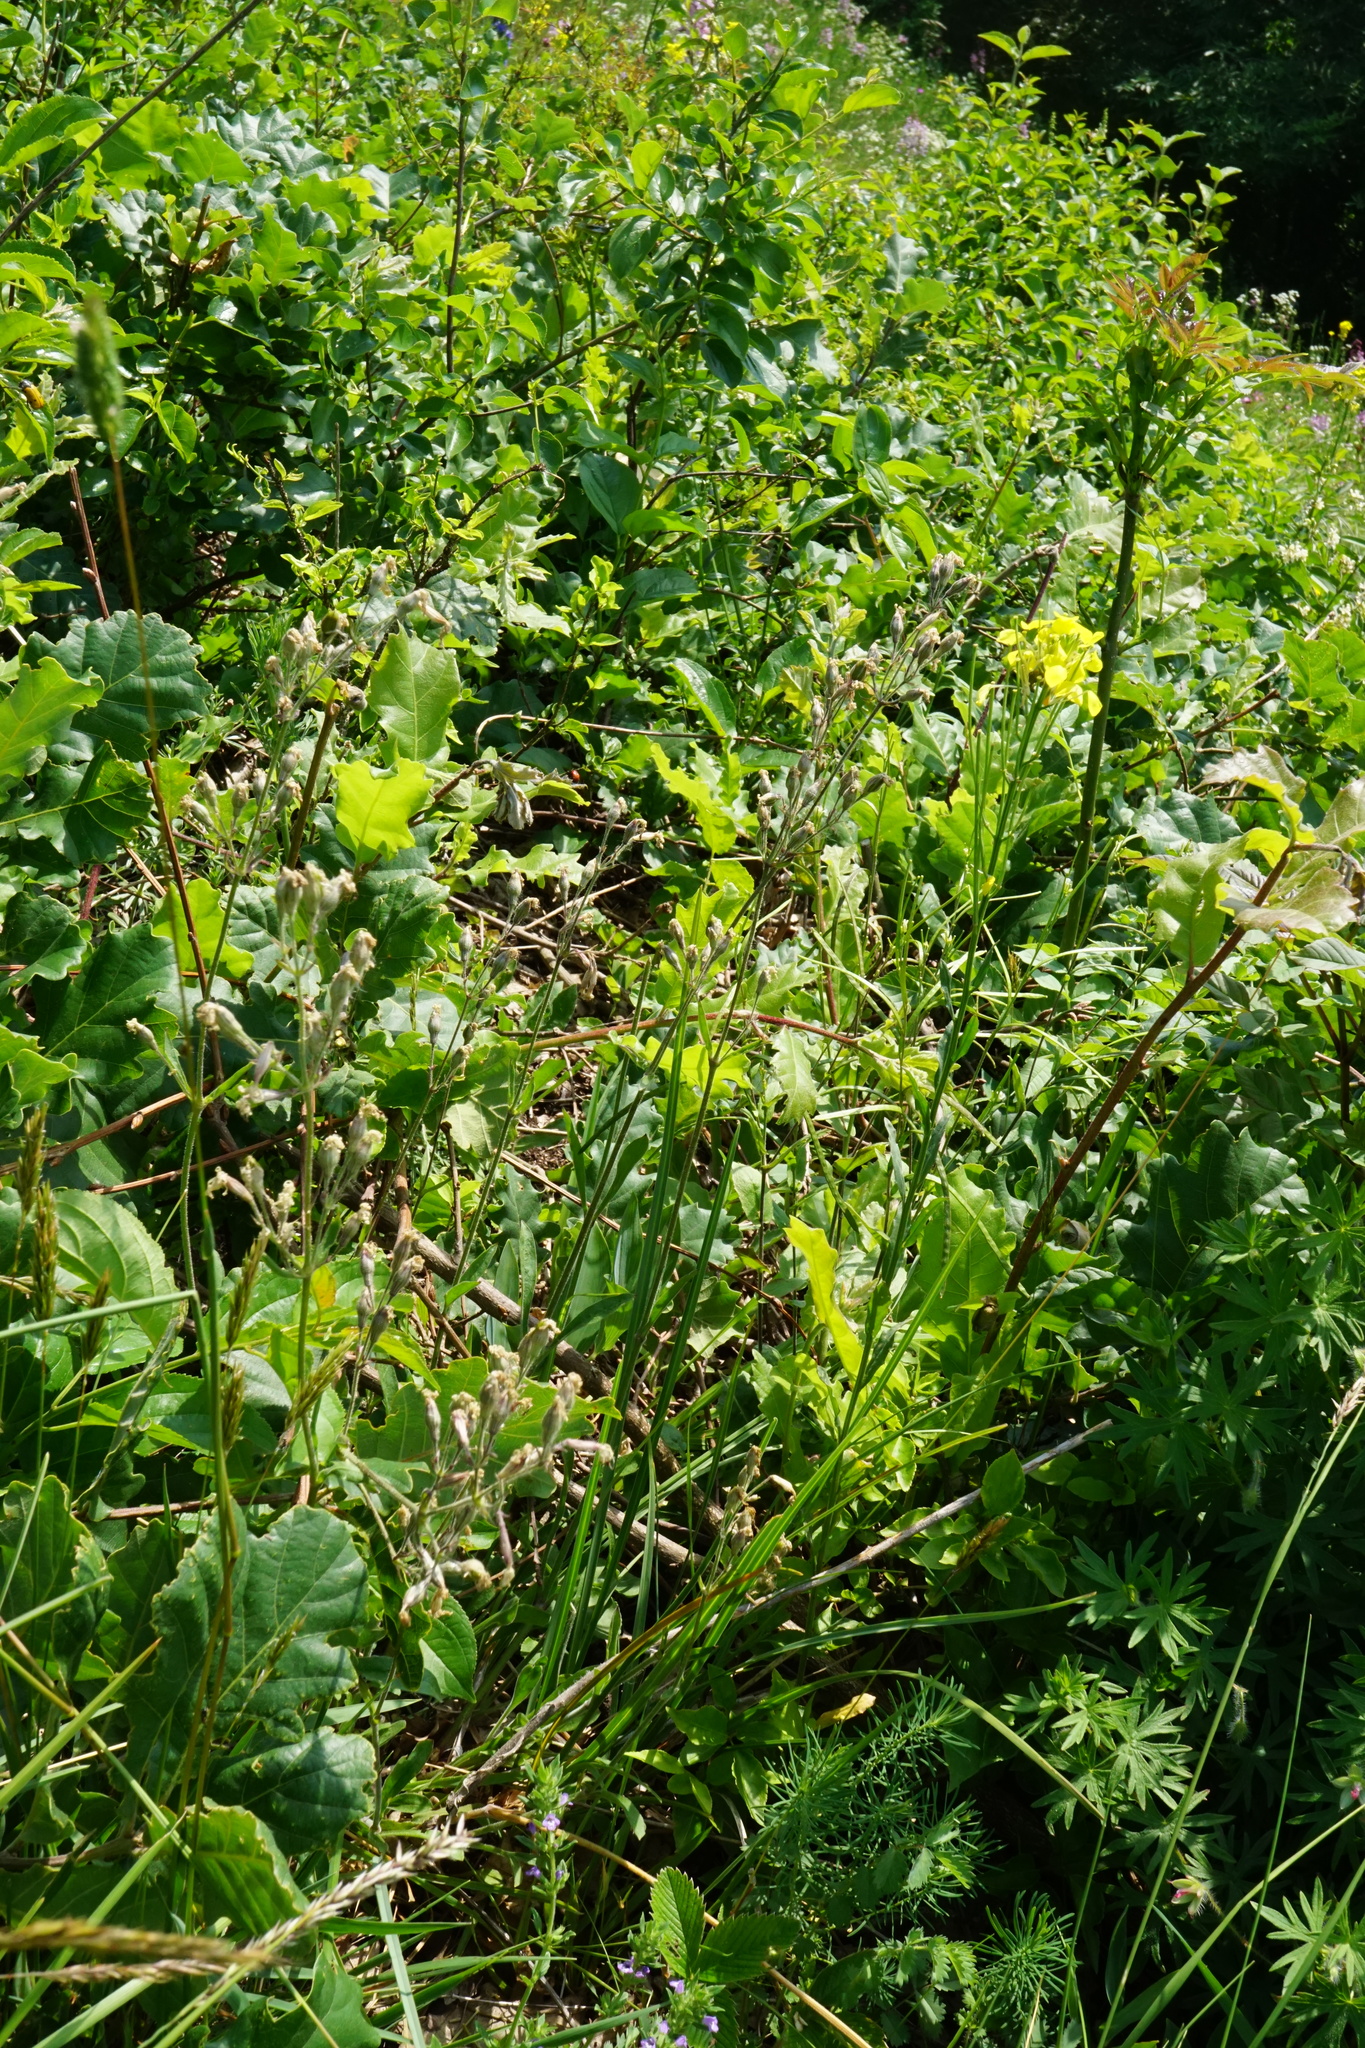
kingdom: Plantae
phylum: Tracheophyta
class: Magnoliopsida
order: Caryophyllales
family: Caryophyllaceae
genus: Silene
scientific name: Silene nutans
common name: Nottingham catchfly
